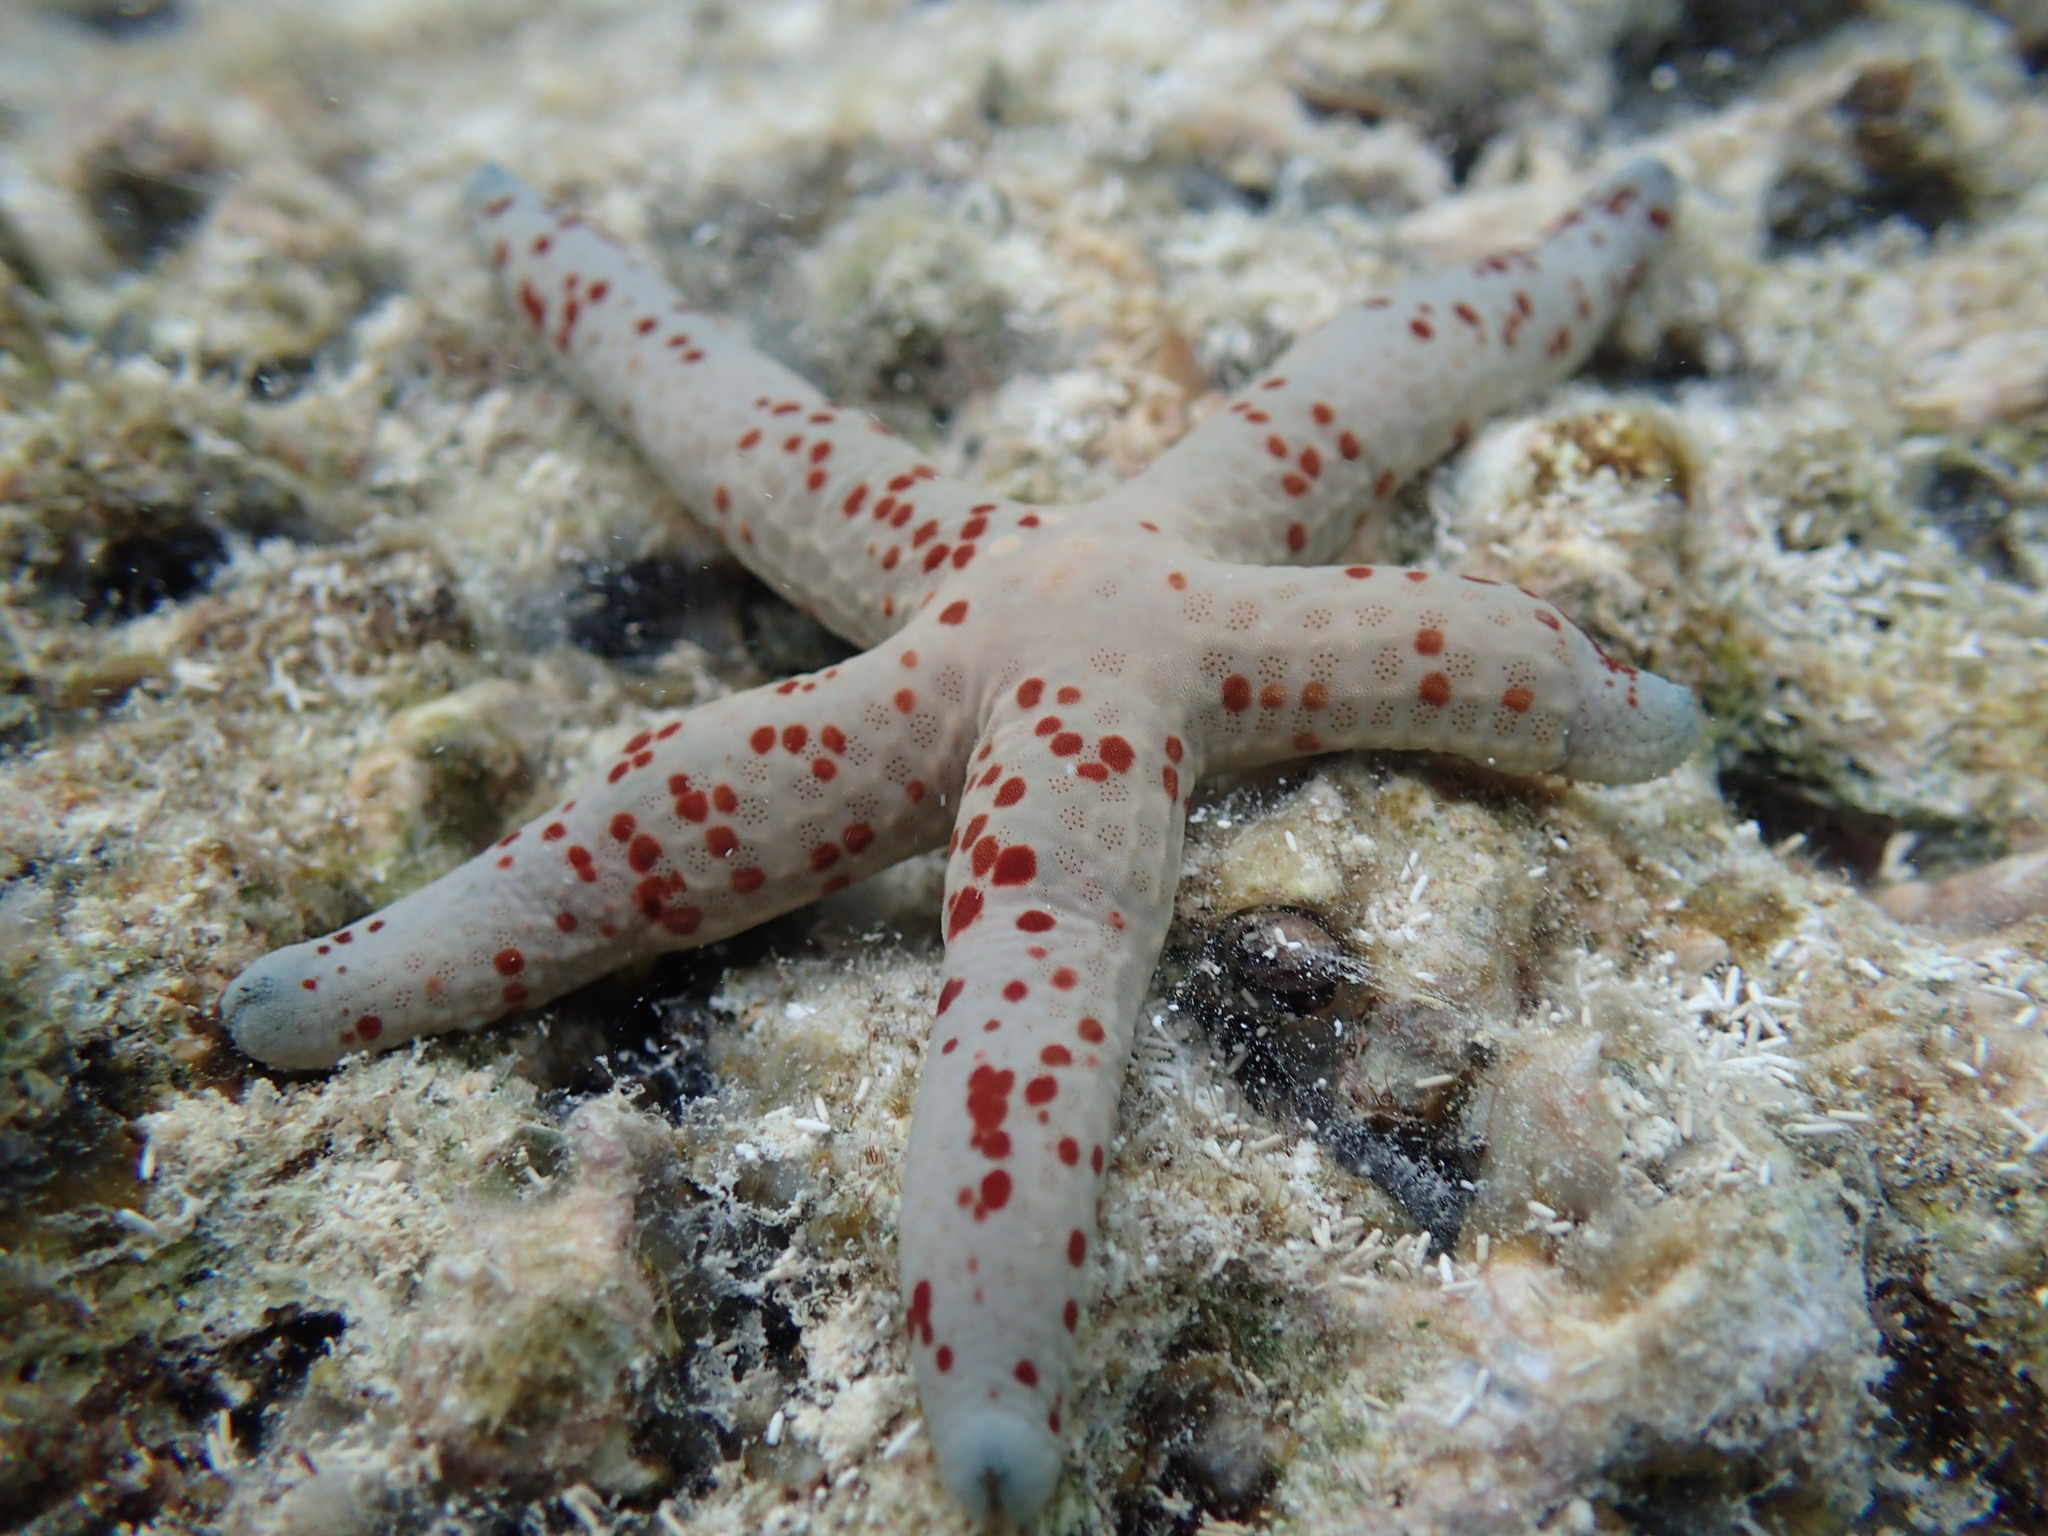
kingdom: Animalia
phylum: Echinodermata
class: Asteroidea
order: Valvatida
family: Ophidiasteridae
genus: Linckia
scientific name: Linckia multifora
